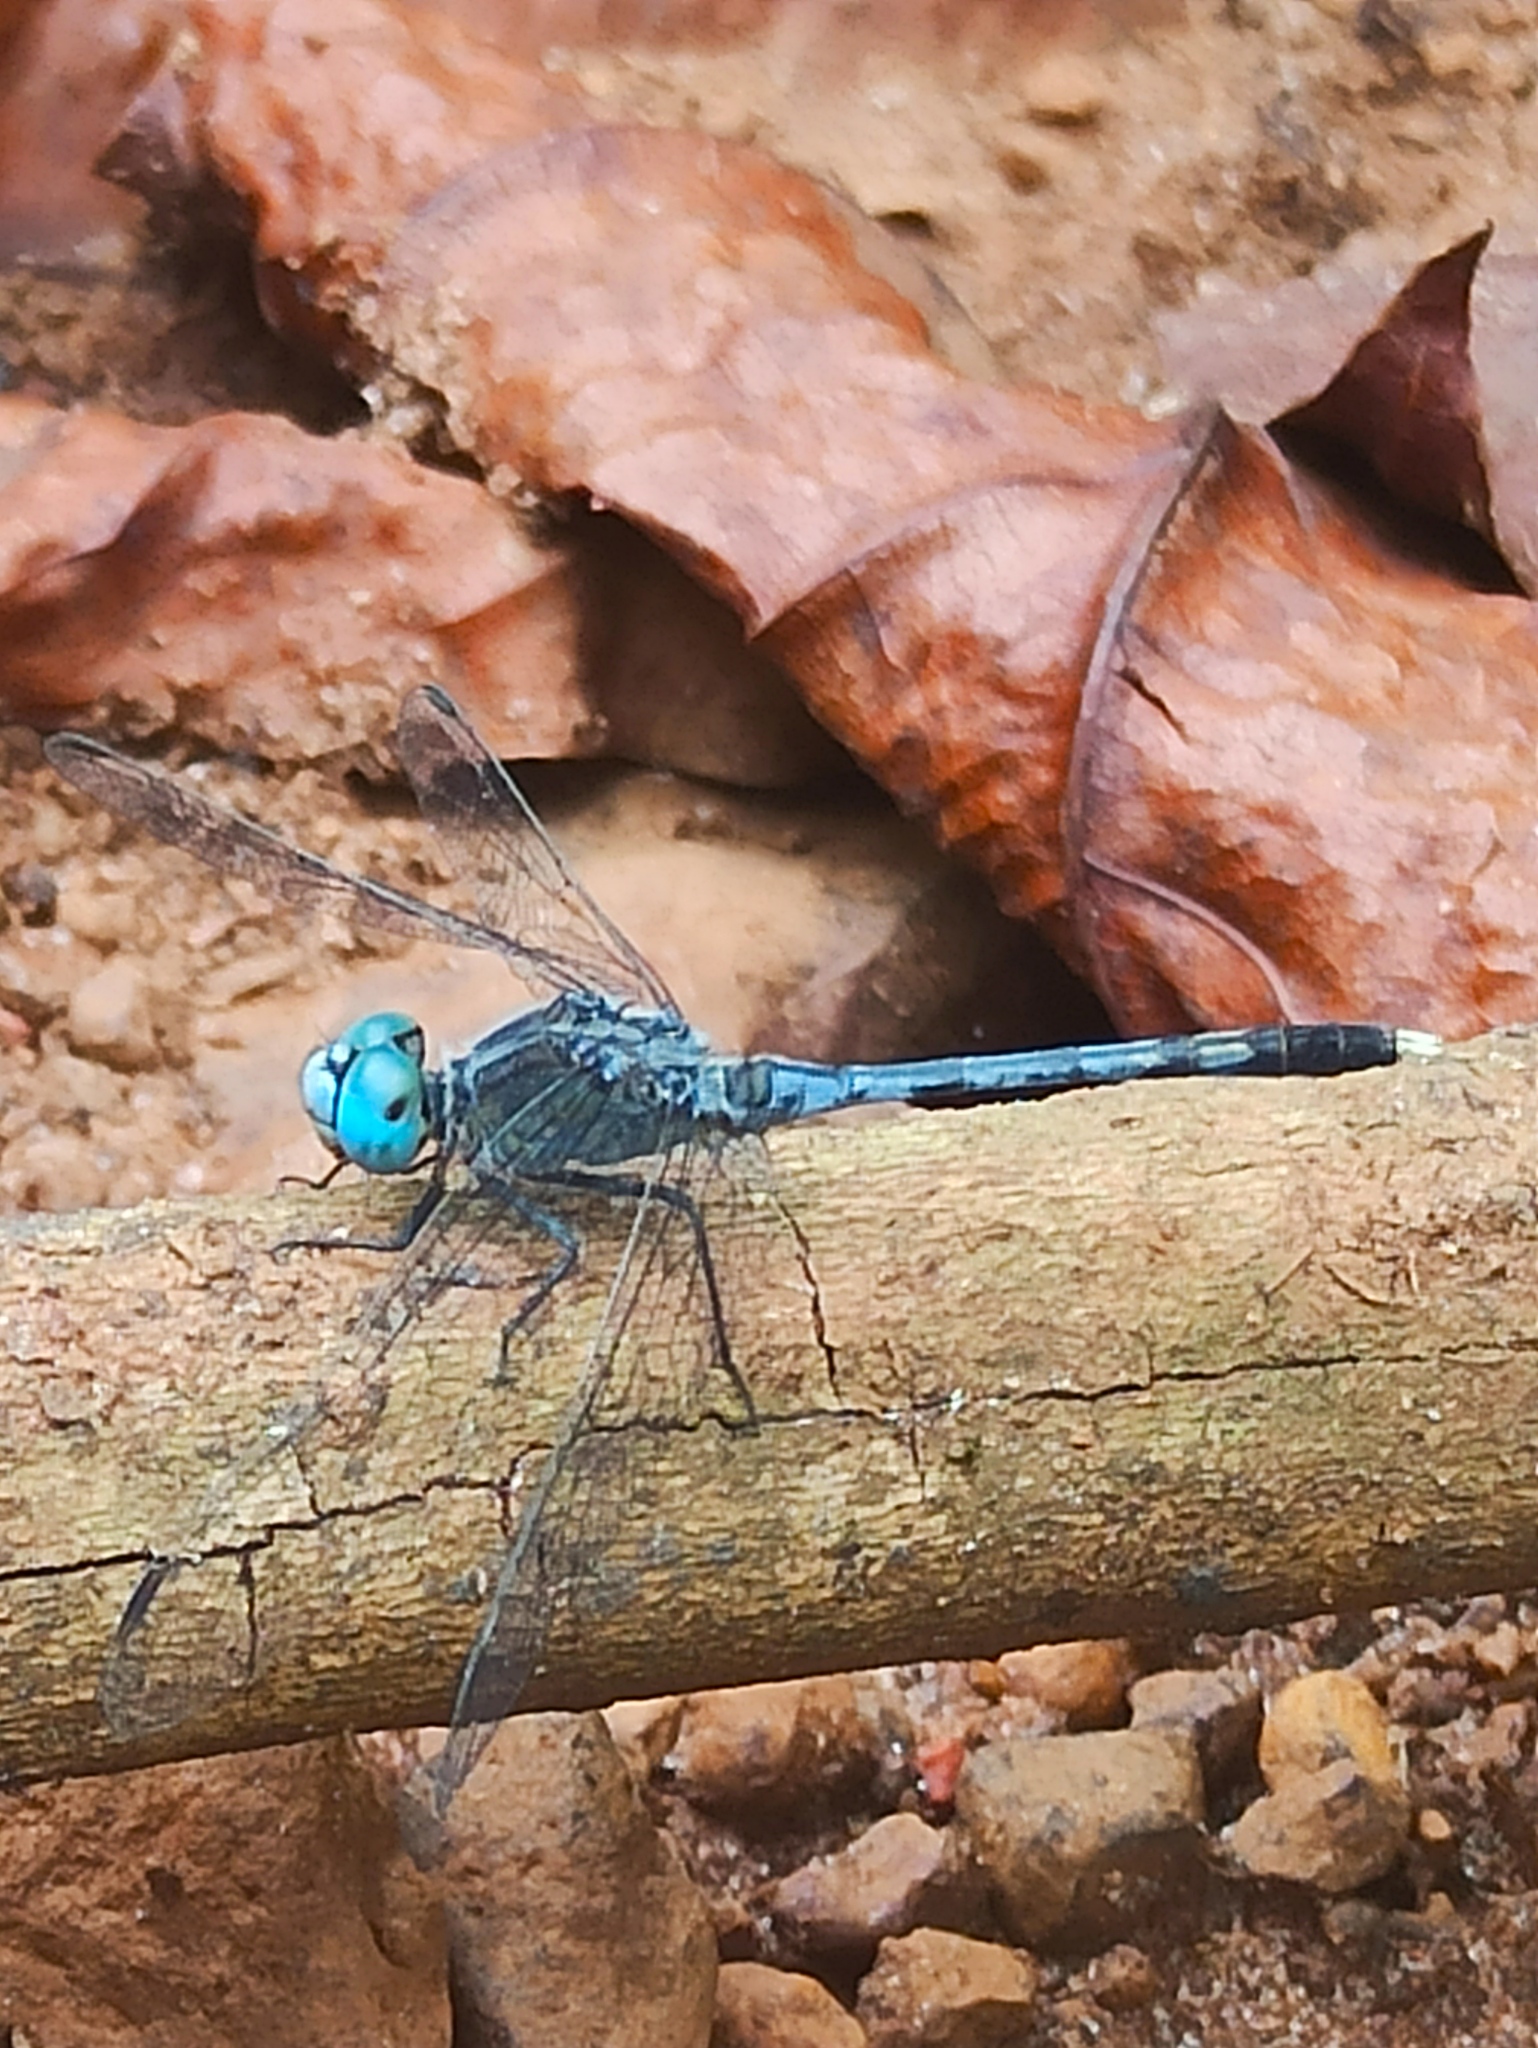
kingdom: Animalia
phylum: Arthropoda
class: Insecta
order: Odonata
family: Libellulidae
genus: Diplacodes
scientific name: Diplacodes trivialis
